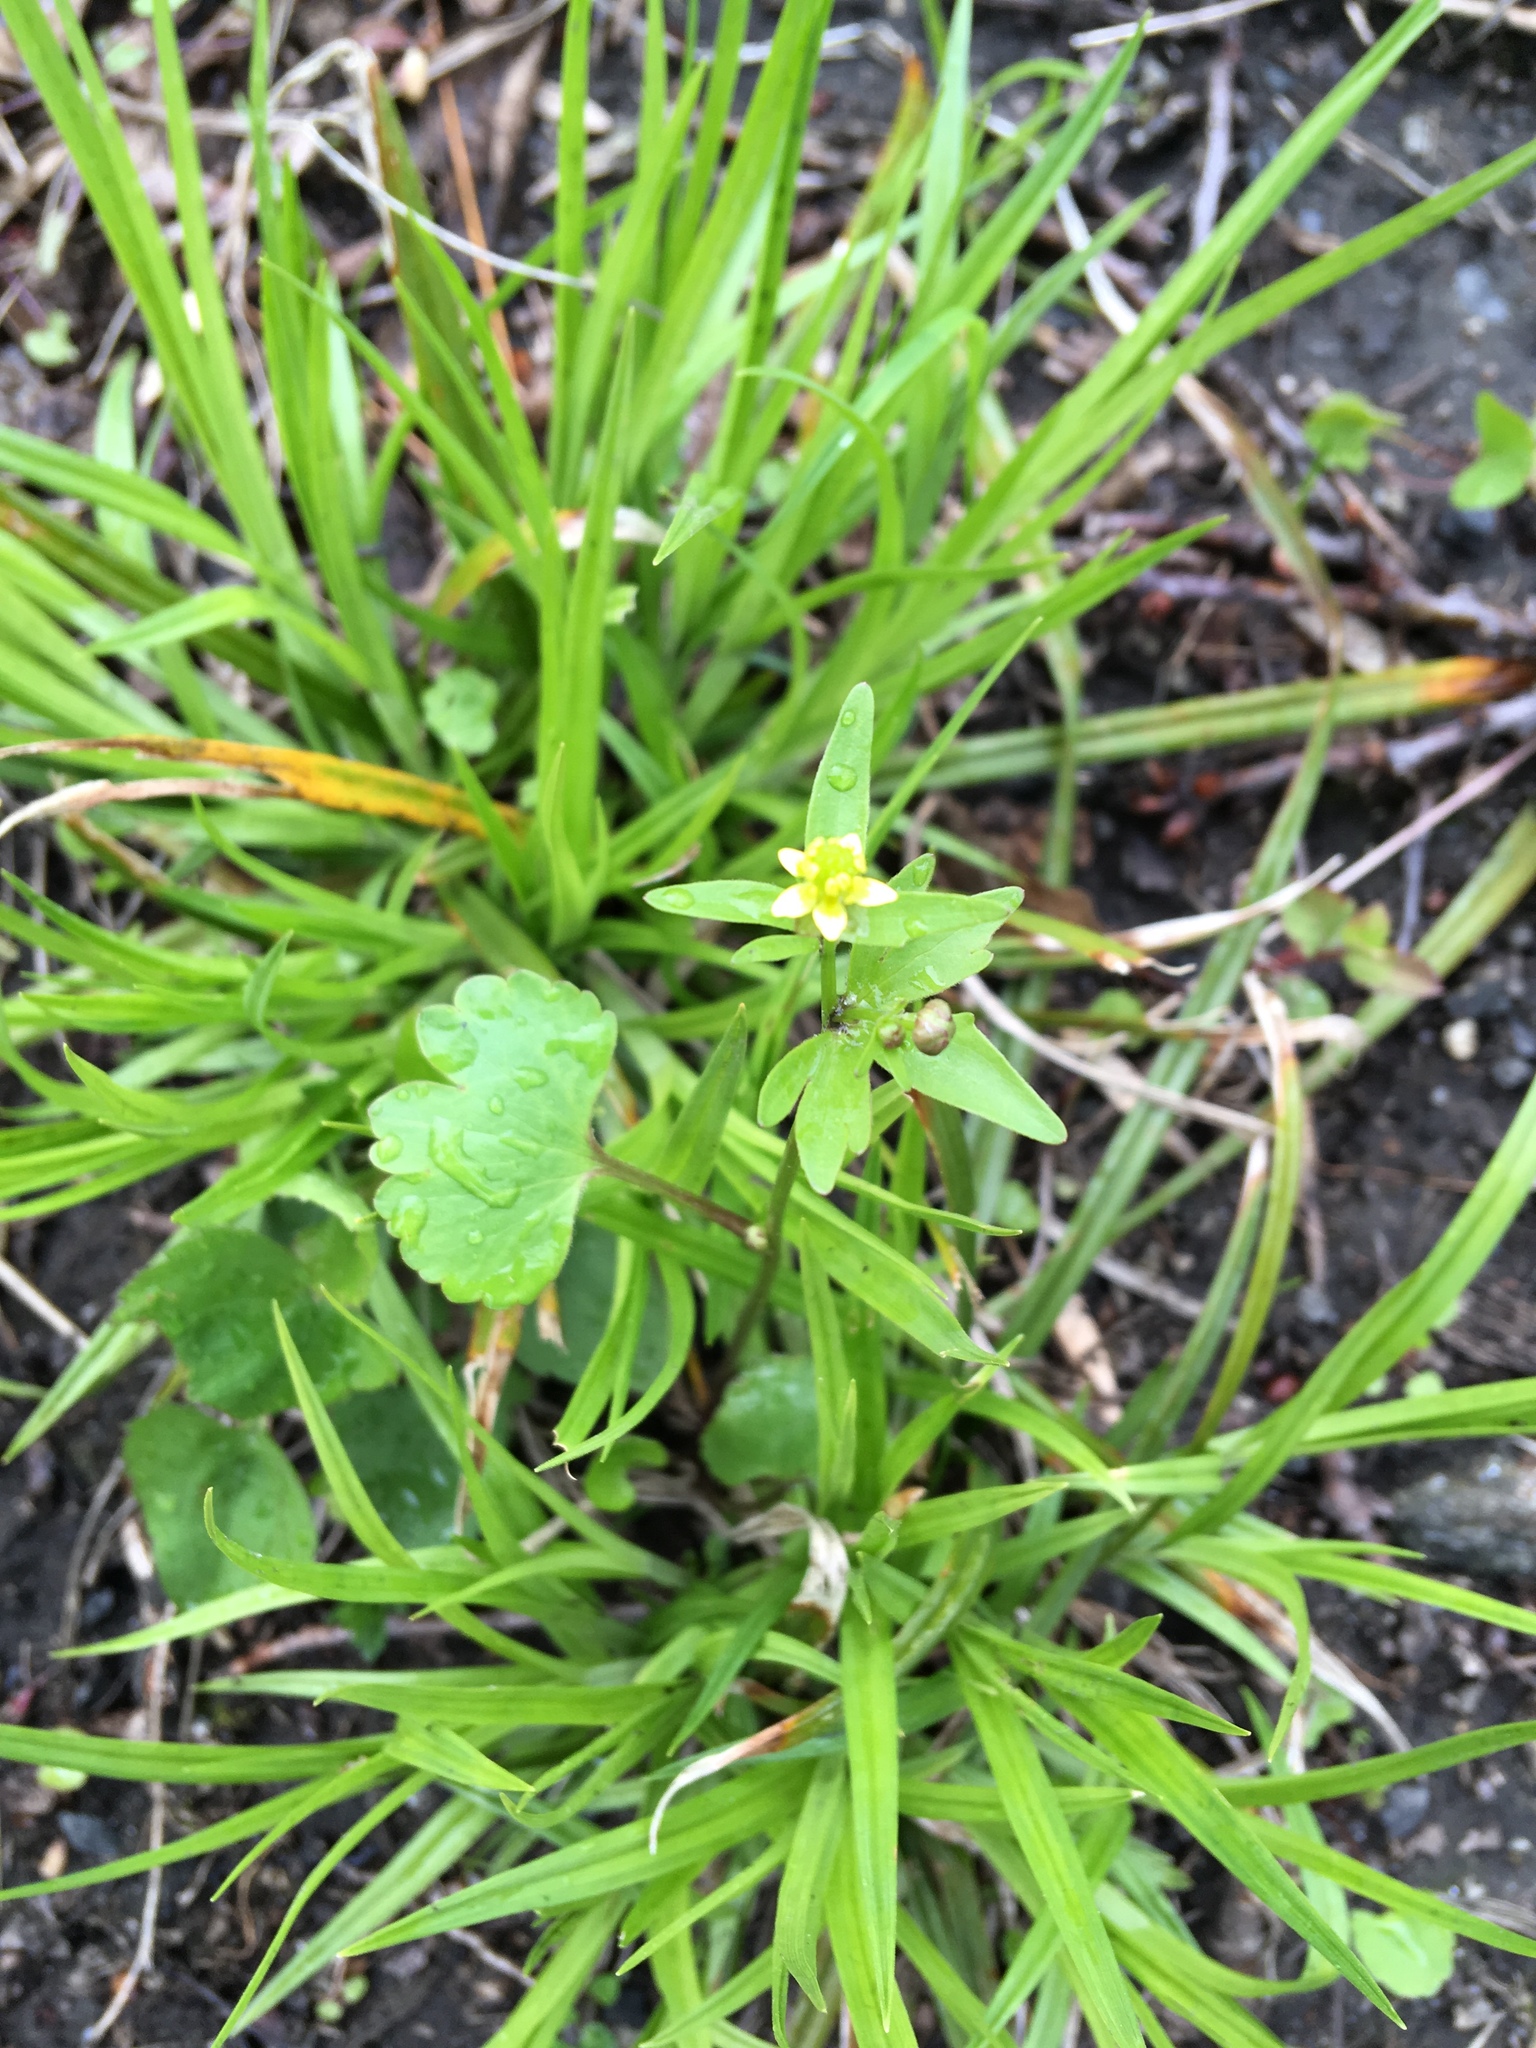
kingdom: Plantae
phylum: Tracheophyta
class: Magnoliopsida
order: Ranunculales
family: Ranunculaceae
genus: Ranunculus
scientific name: Ranunculus abortivus
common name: Early wood buttercup
